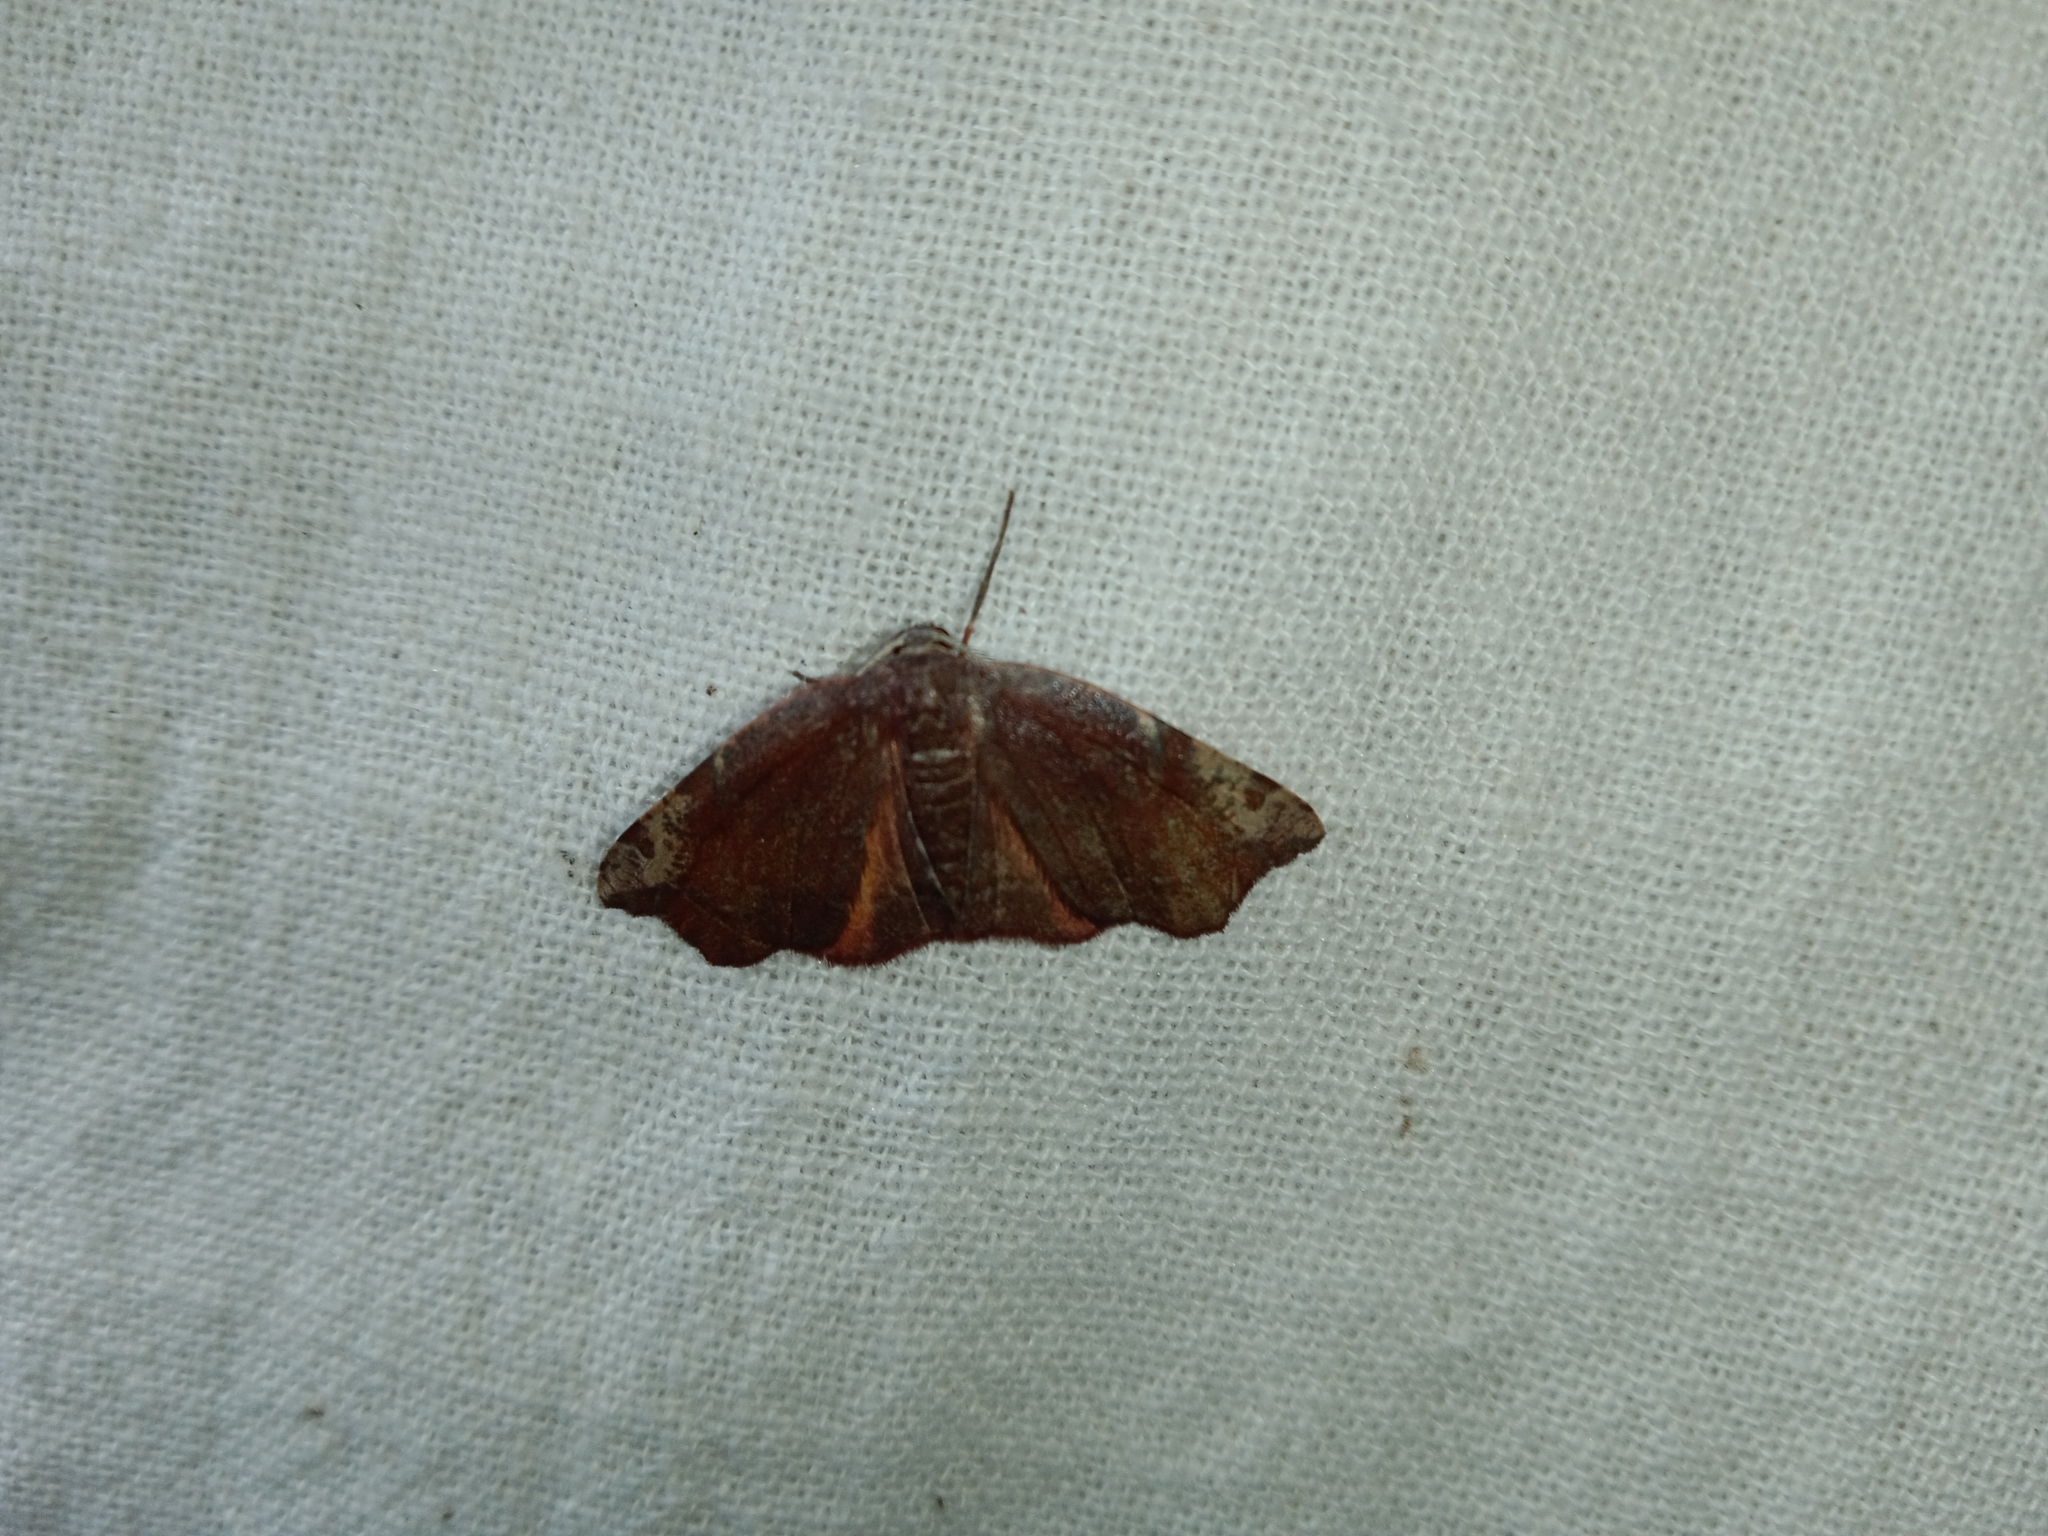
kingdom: Animalia
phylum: Arthropoda
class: Insecta
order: Lepidoptera
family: Geometridae
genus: Achrosis
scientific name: Achrosis rondelaria
